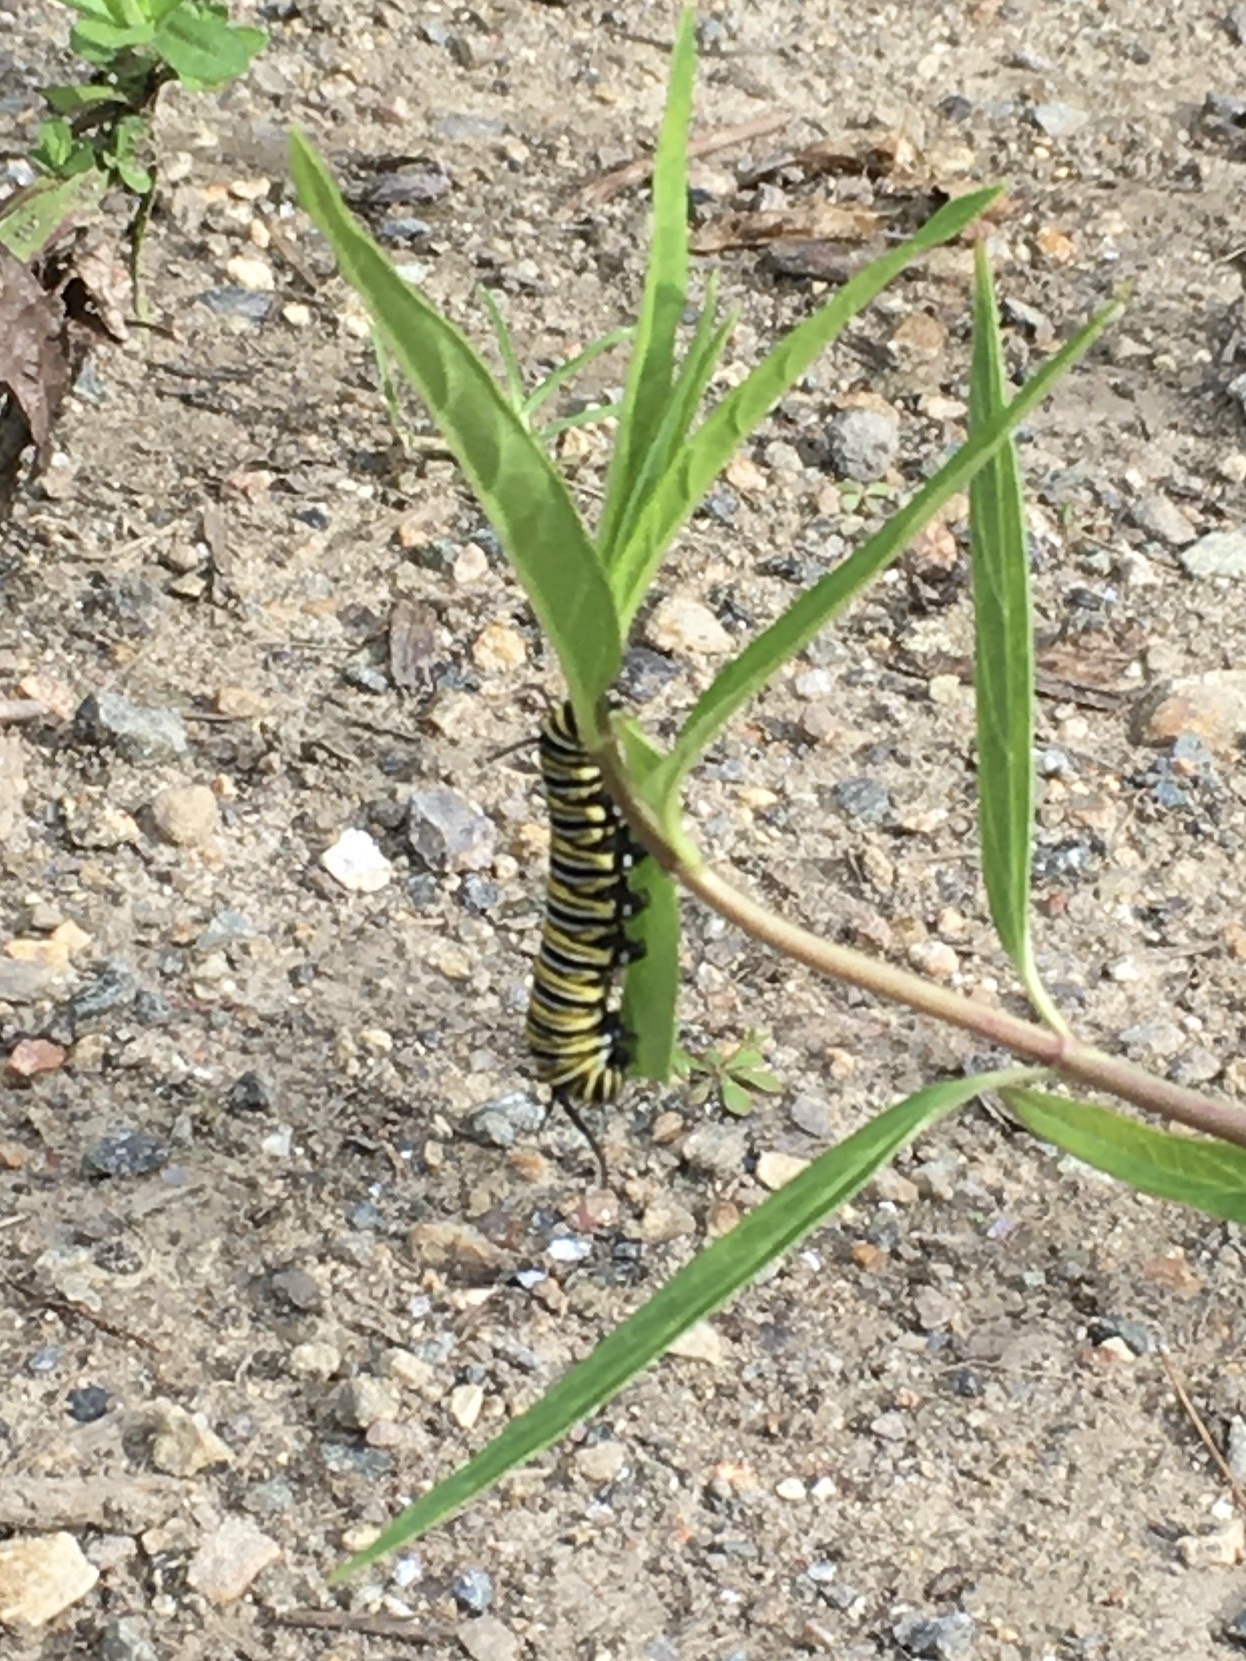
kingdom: Animalia
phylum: Arthropoda
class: Insecta
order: Lepidoptera
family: Nymphalidae
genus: Danaus
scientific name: Danaus plexippus
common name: Monarch
